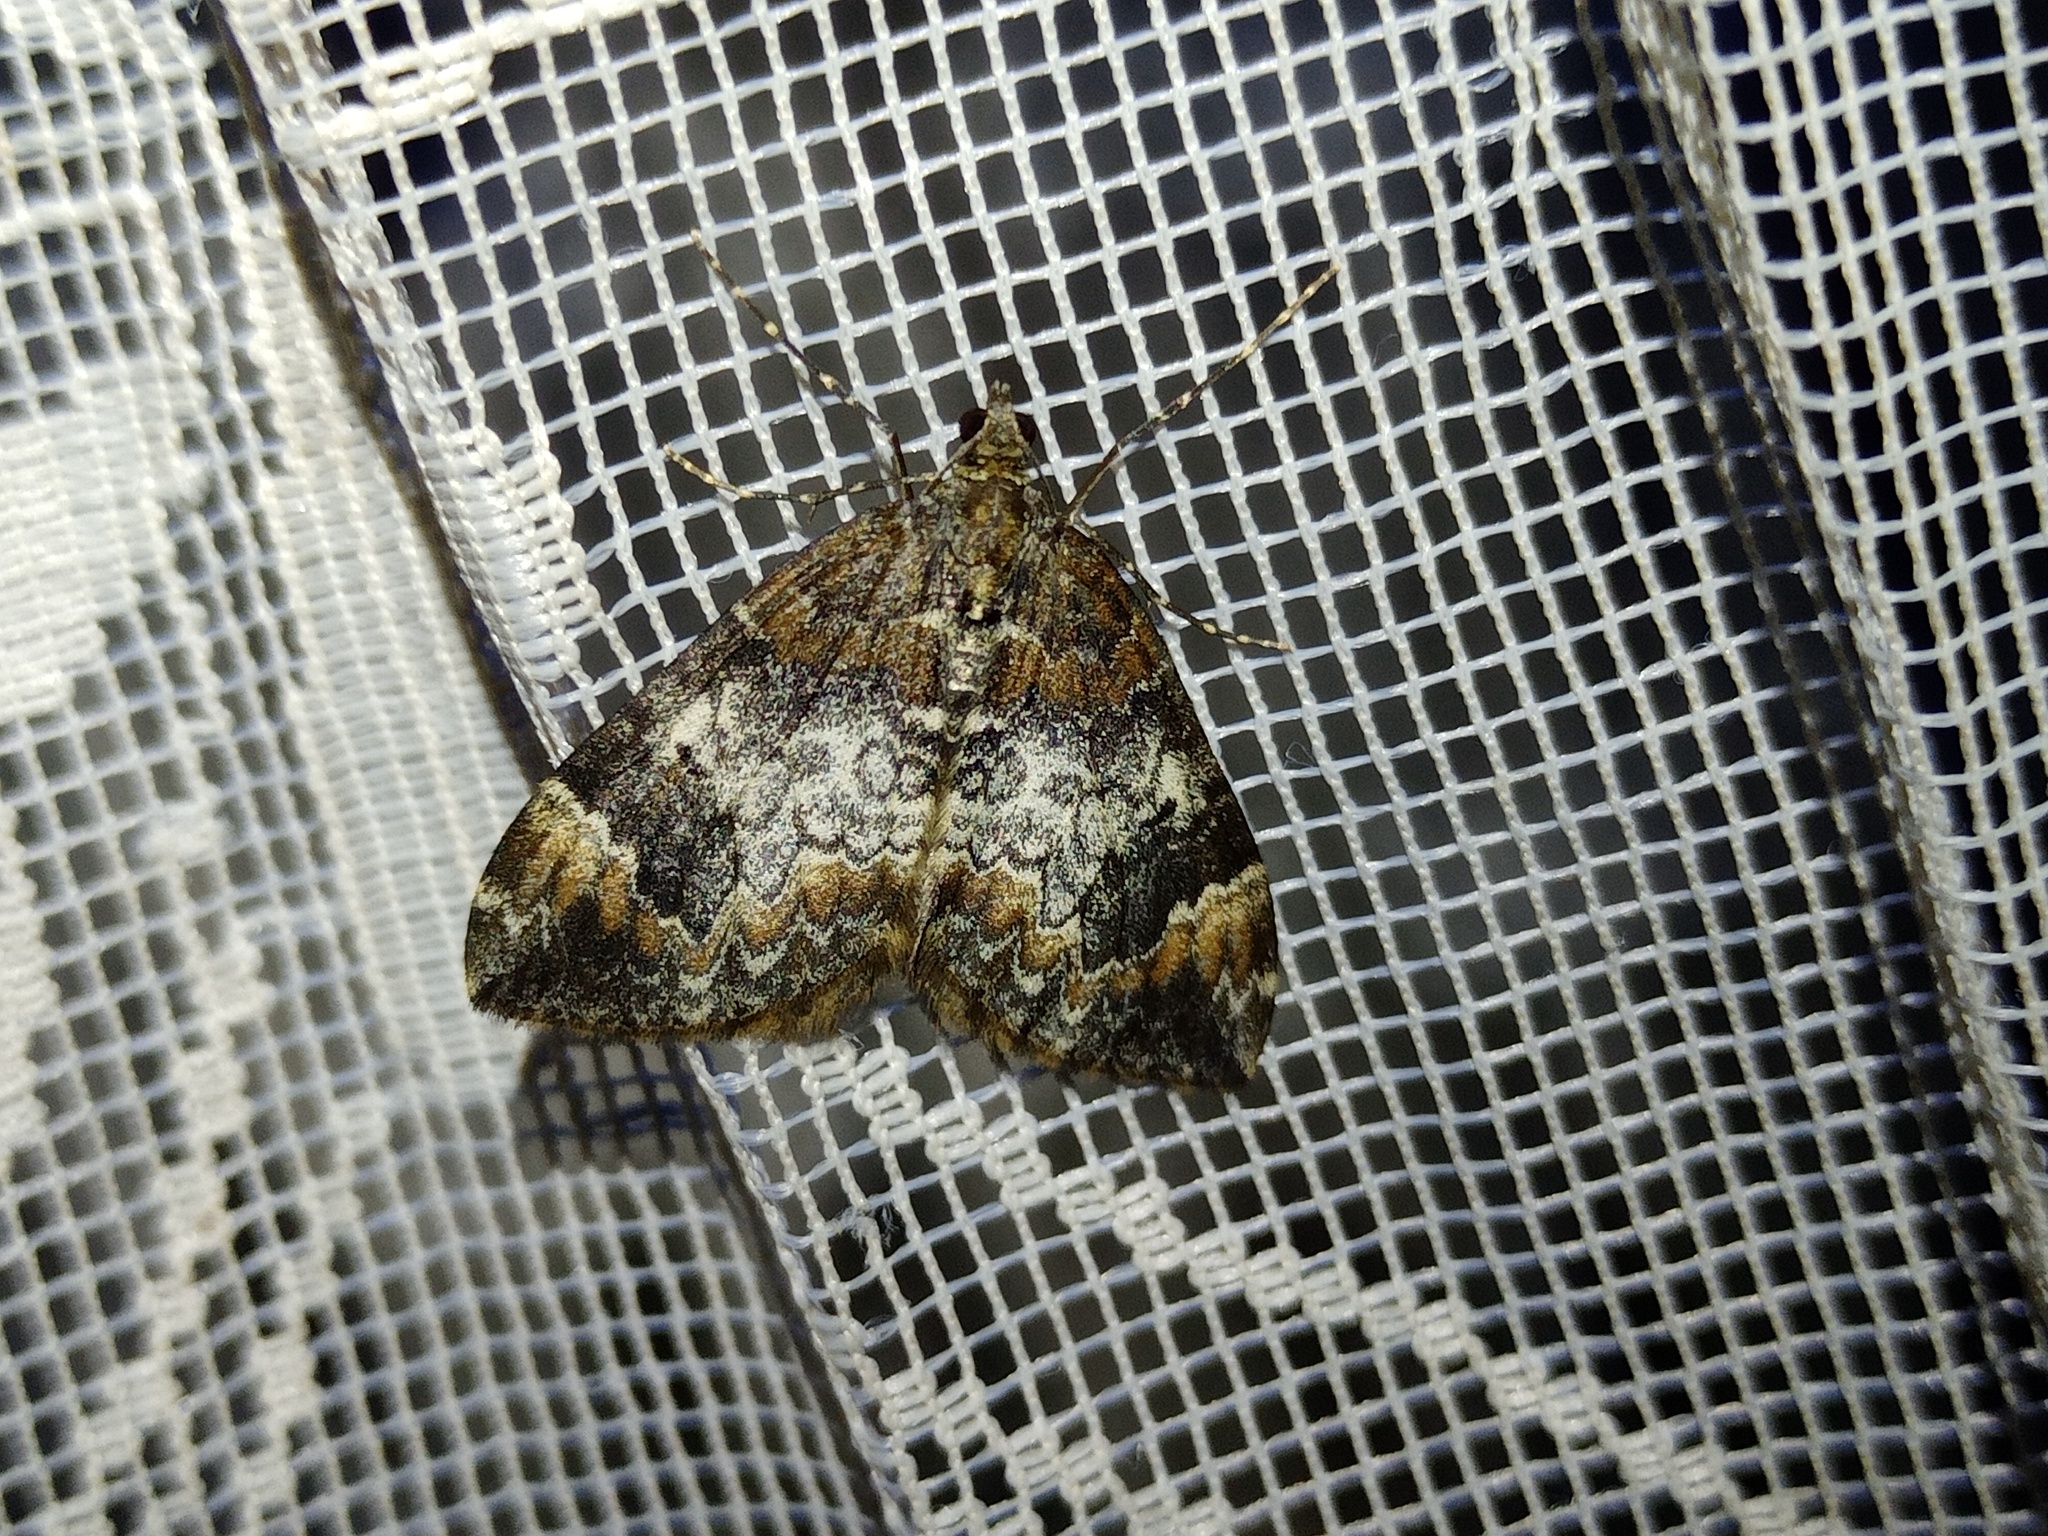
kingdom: Animalia
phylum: Arthropoda
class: Insecta
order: Lepidoptera
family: Geometridae
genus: Dysstroma
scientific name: Dysstroma truncata
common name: Common marbled carpet
